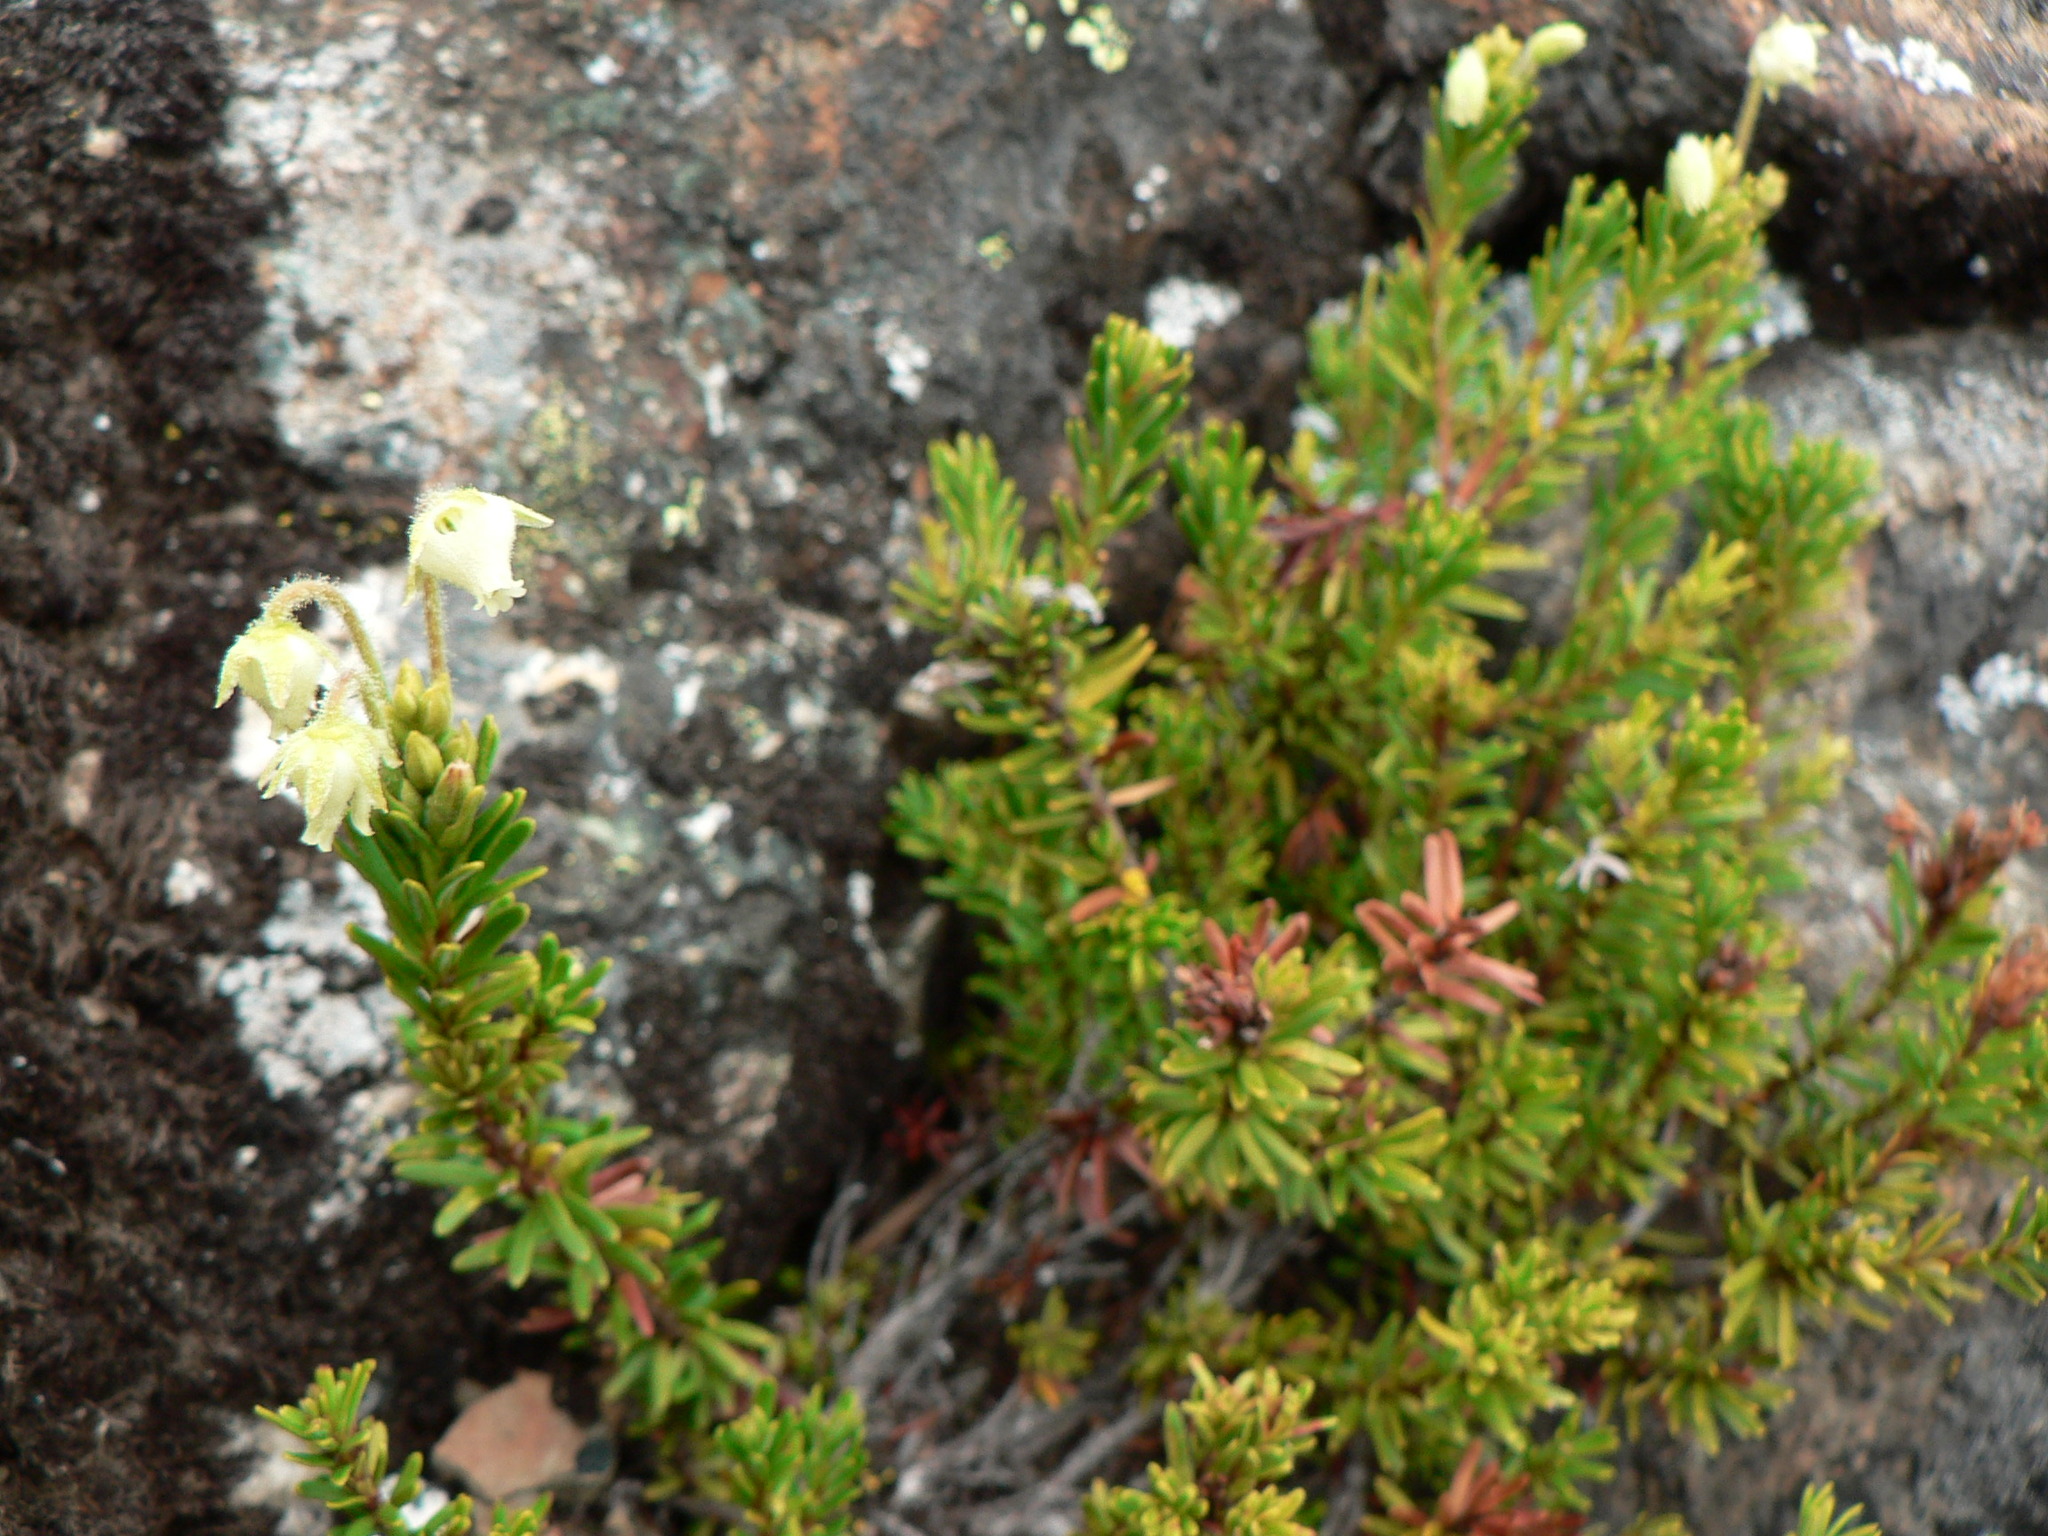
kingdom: Plantae
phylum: Tracheophyta
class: Magnoliopsida
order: Ericales
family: Ericaceae
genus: Phyllodoce
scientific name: Phyllodoce glanduliflora
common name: Cream mountain heather
